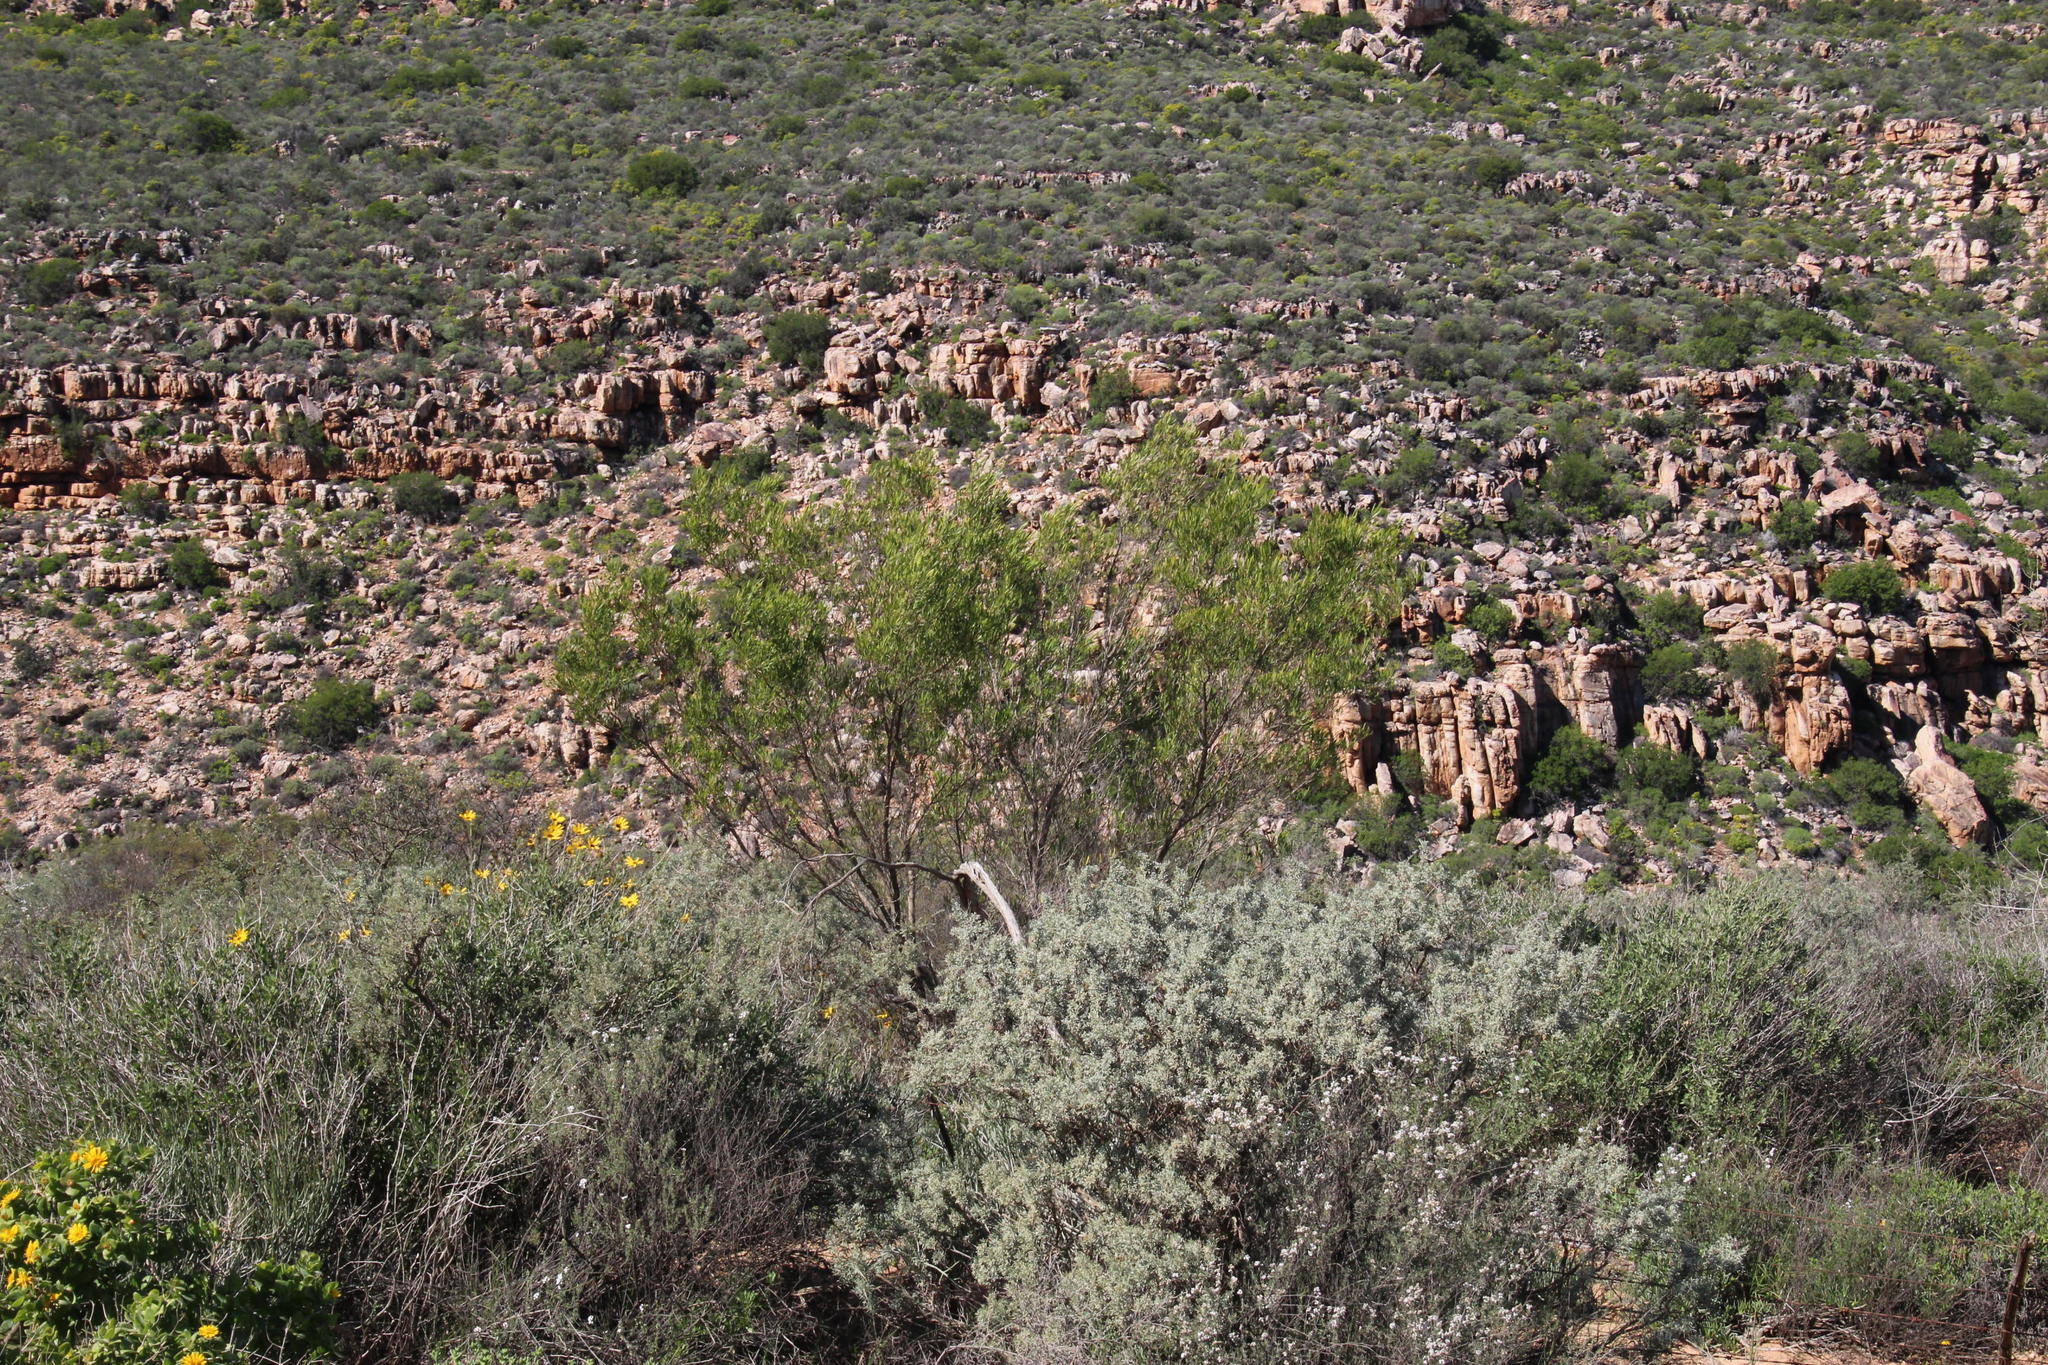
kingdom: Plantae
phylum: Tracheophyta
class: Magnoliopsida
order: Sapindales
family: Sapindaceae
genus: Dodonaea
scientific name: Dodonaea viscosa
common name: Hopbush
